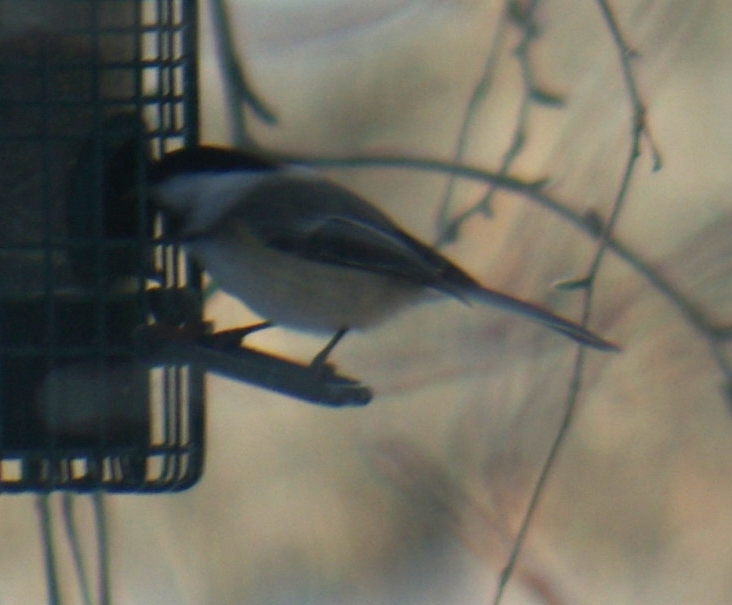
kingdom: Animalia
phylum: Chordata
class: Aves
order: Passeriformes
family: Paridae
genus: Poecile
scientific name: Poecile atricapillus
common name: Black-capped chickadee
